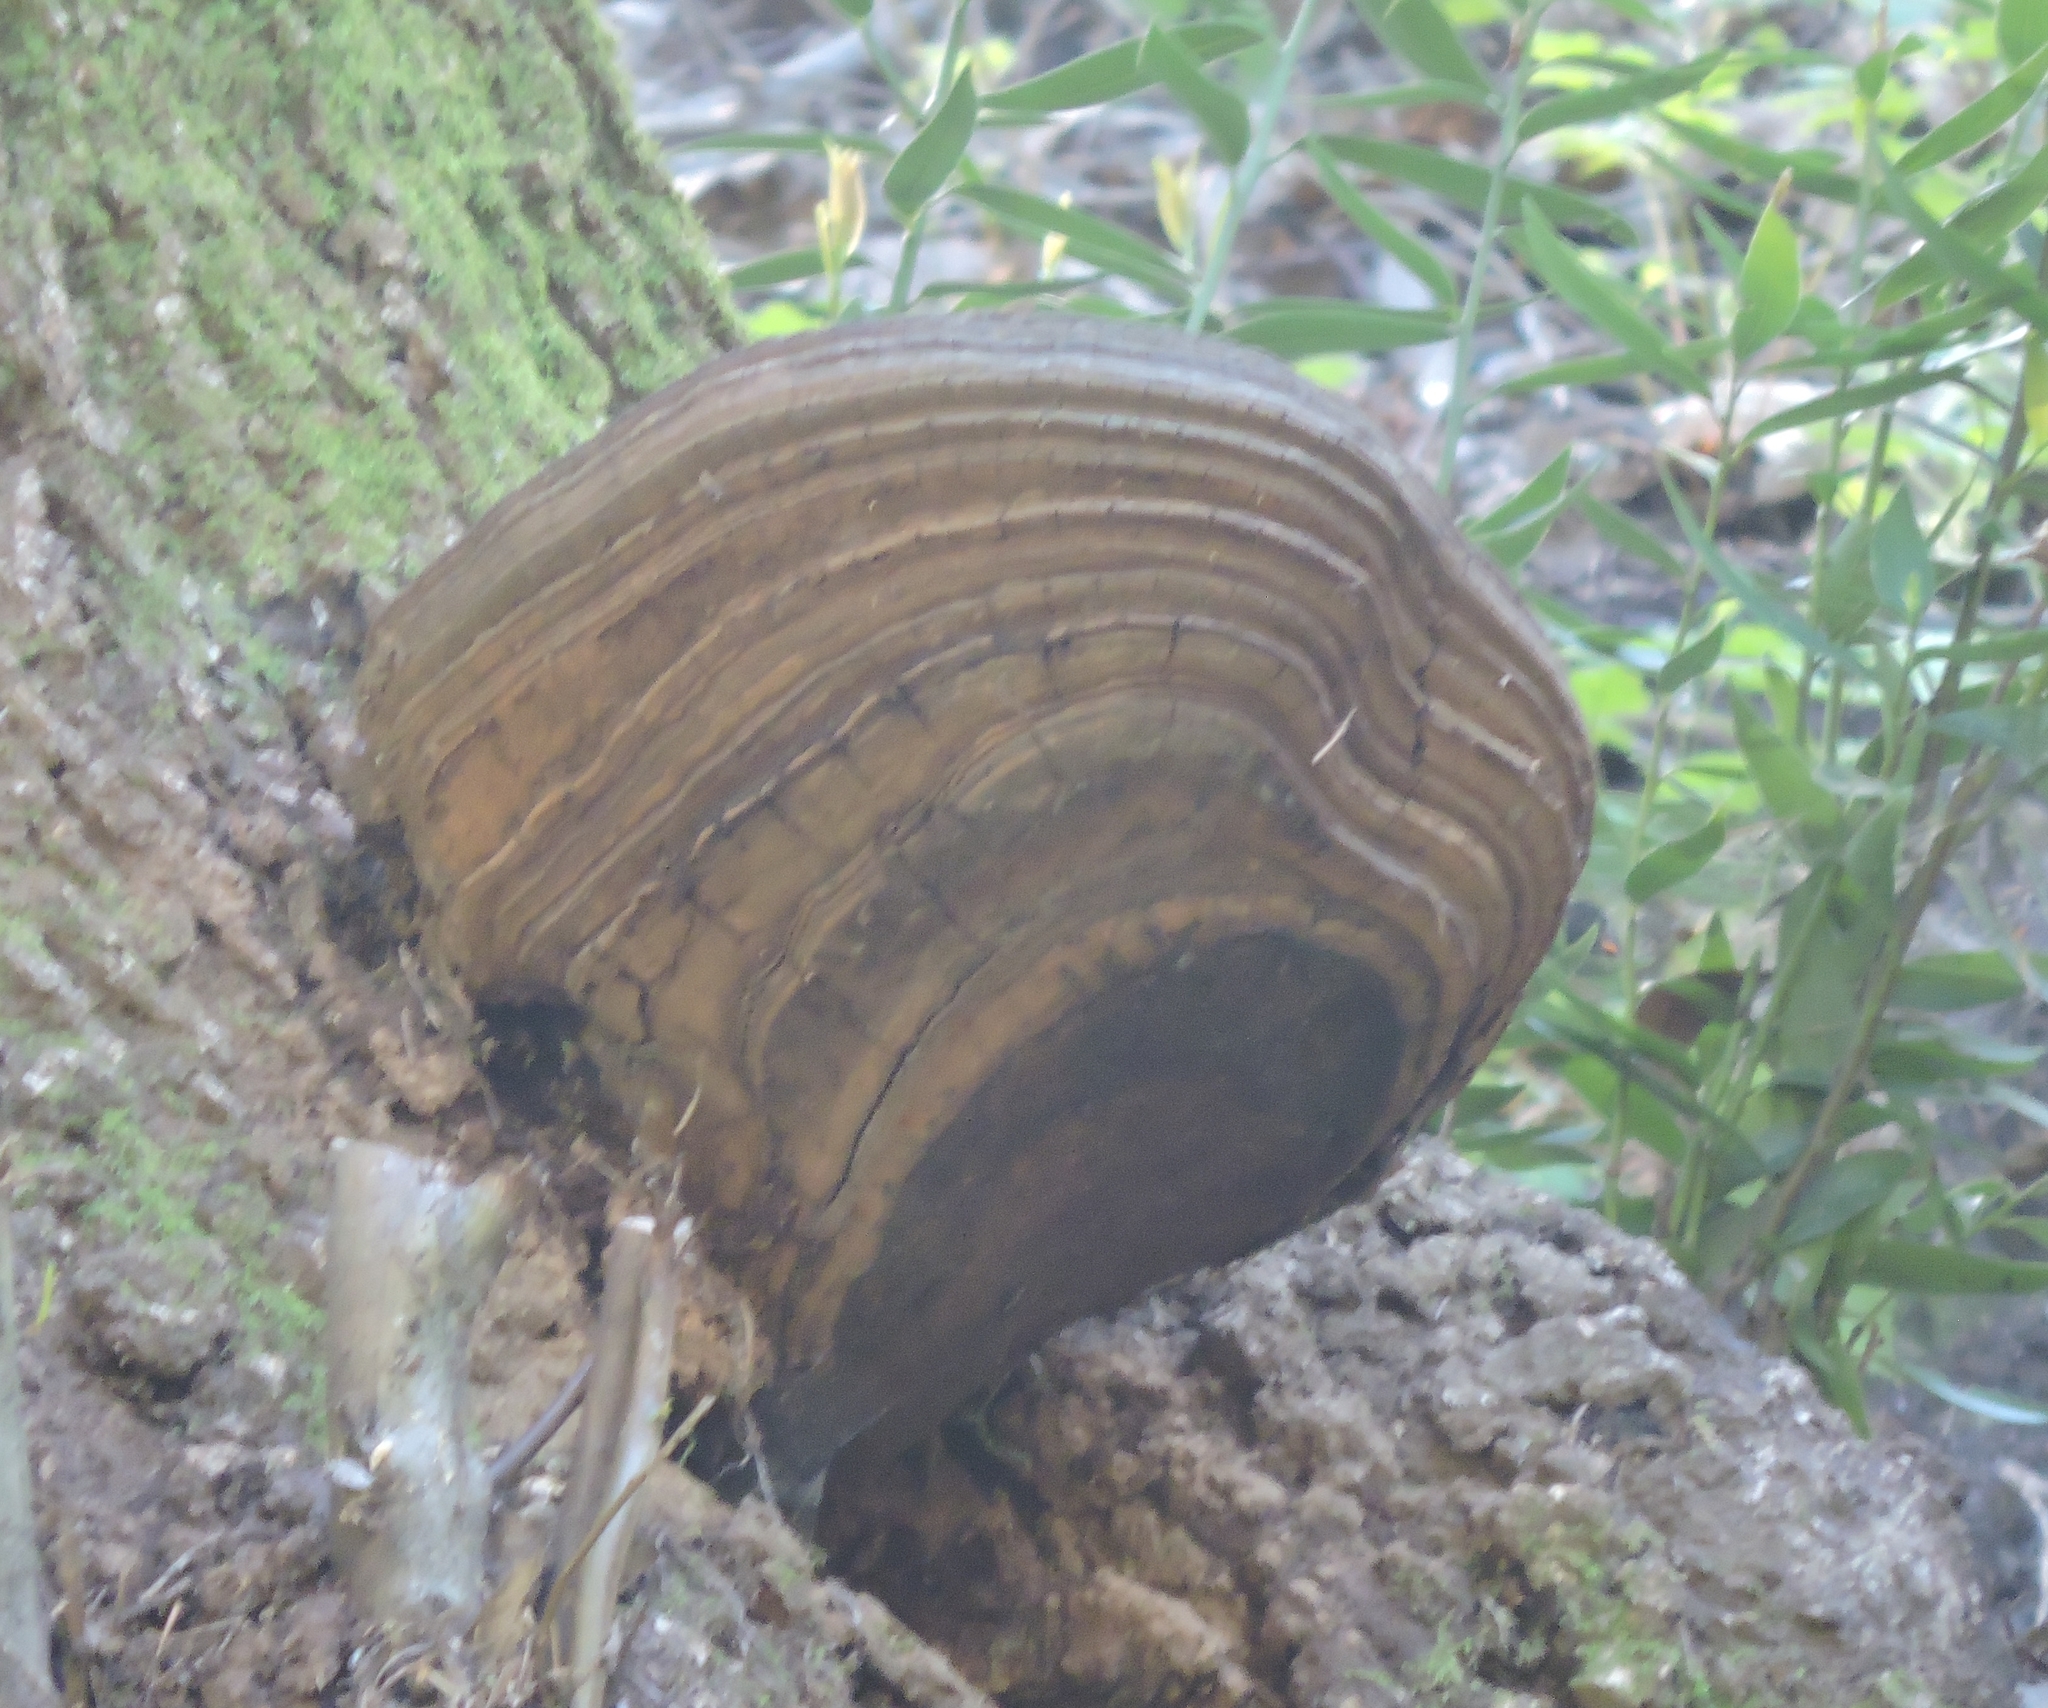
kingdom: Fungi
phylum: Basidiomycota
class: Agaricomycetes
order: Polyporales
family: Polyporaceae
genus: Ganoderma
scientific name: Ganoderma brownii
